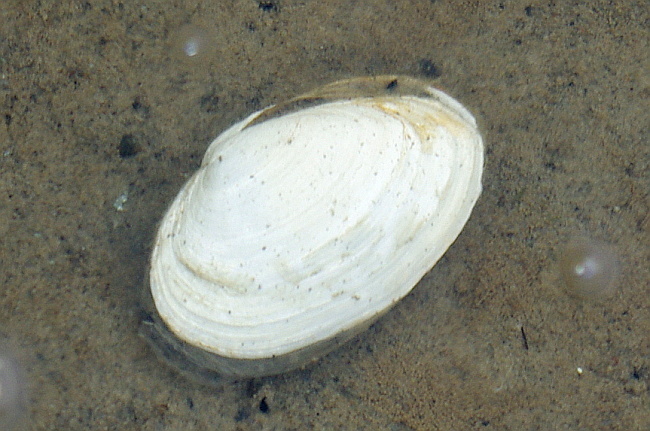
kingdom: Animalia
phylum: Mollusca
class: Bivalvia
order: Myida
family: Myidae
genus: Mya
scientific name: Mya arenaria
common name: Soft-shelled clam
